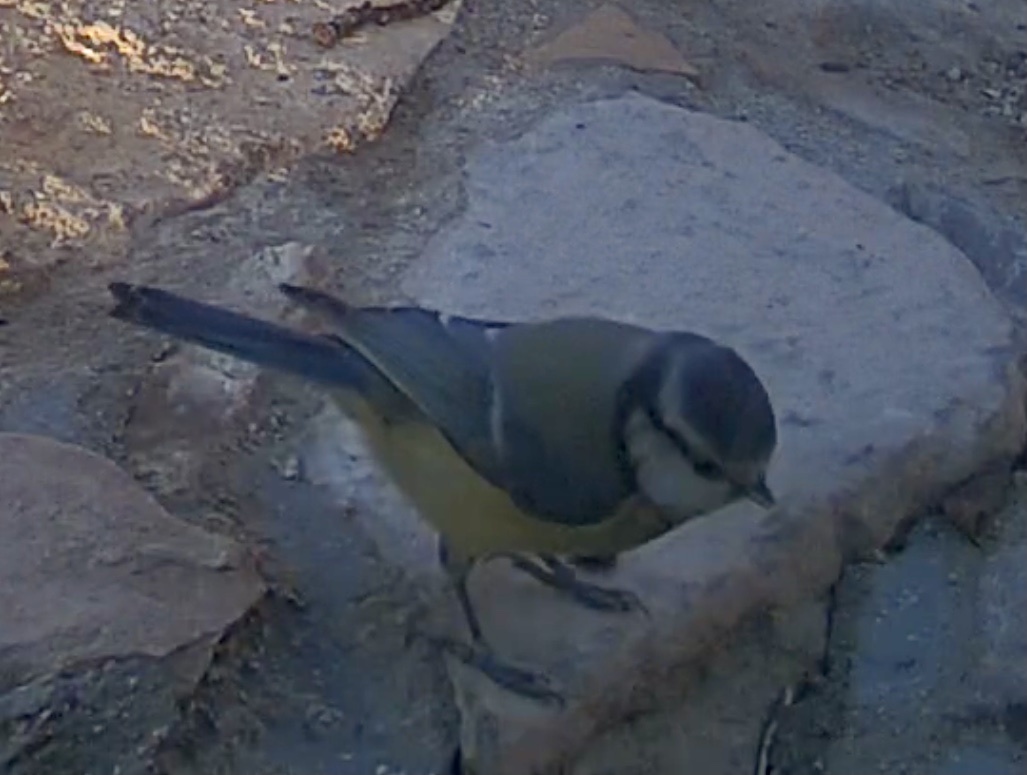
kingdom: Animalia
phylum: Chordata
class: Aves
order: Passeriformes
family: Paridae
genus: Cyanistes
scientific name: Cyanistes caeruleus
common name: Eurasian blue tit
